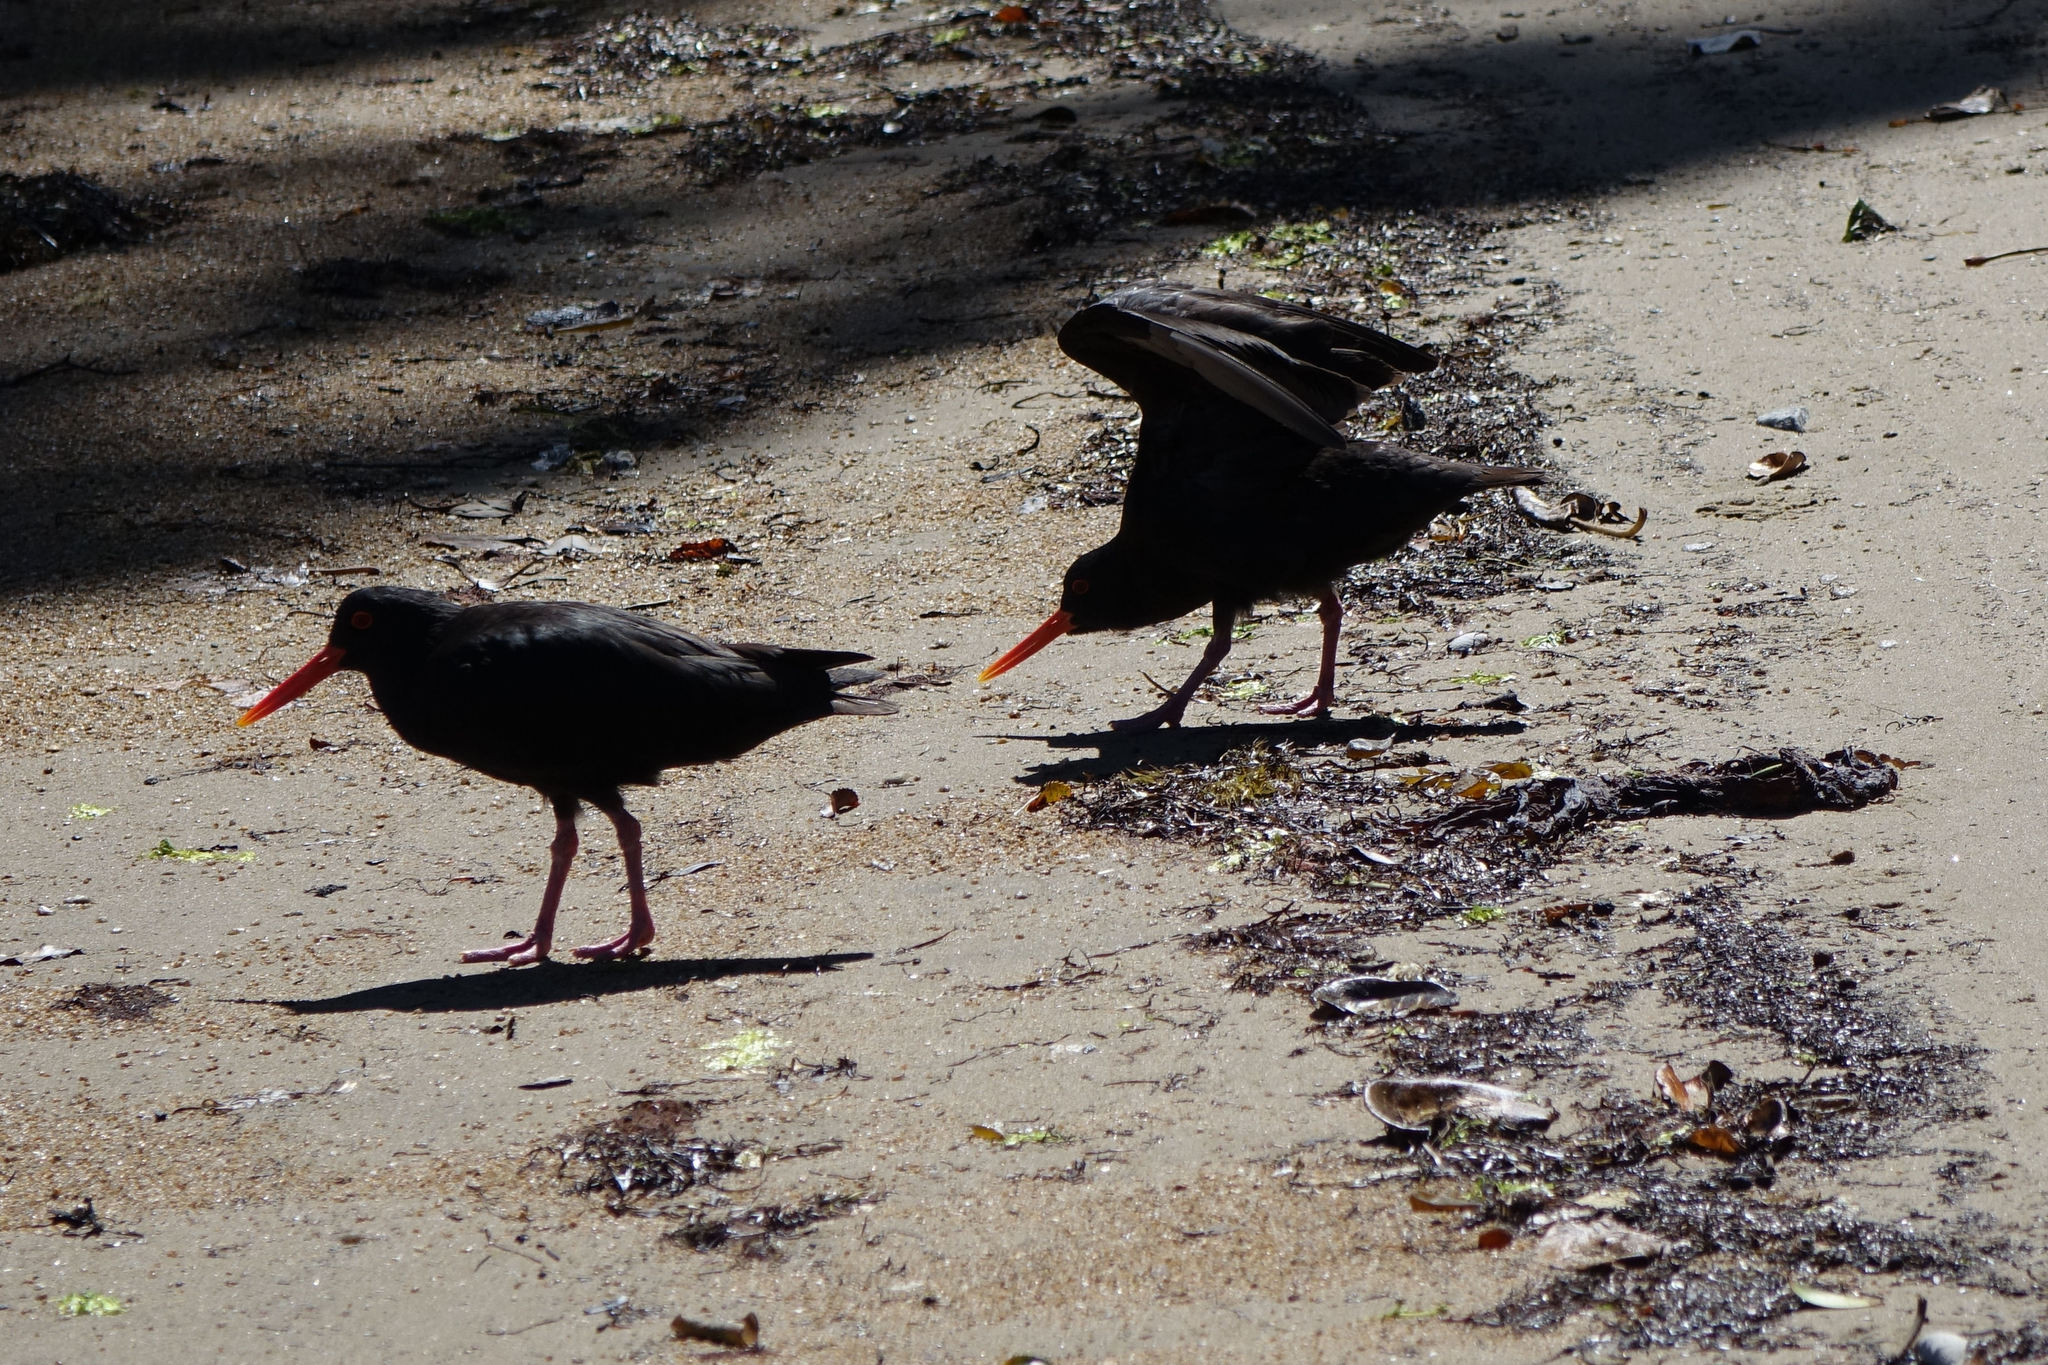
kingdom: Animalia
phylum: Chordata
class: Aves
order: Charadriiformes
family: Haematopodidae
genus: Haematopus
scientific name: Haematopus unicolor
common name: Variable oystercatcher
